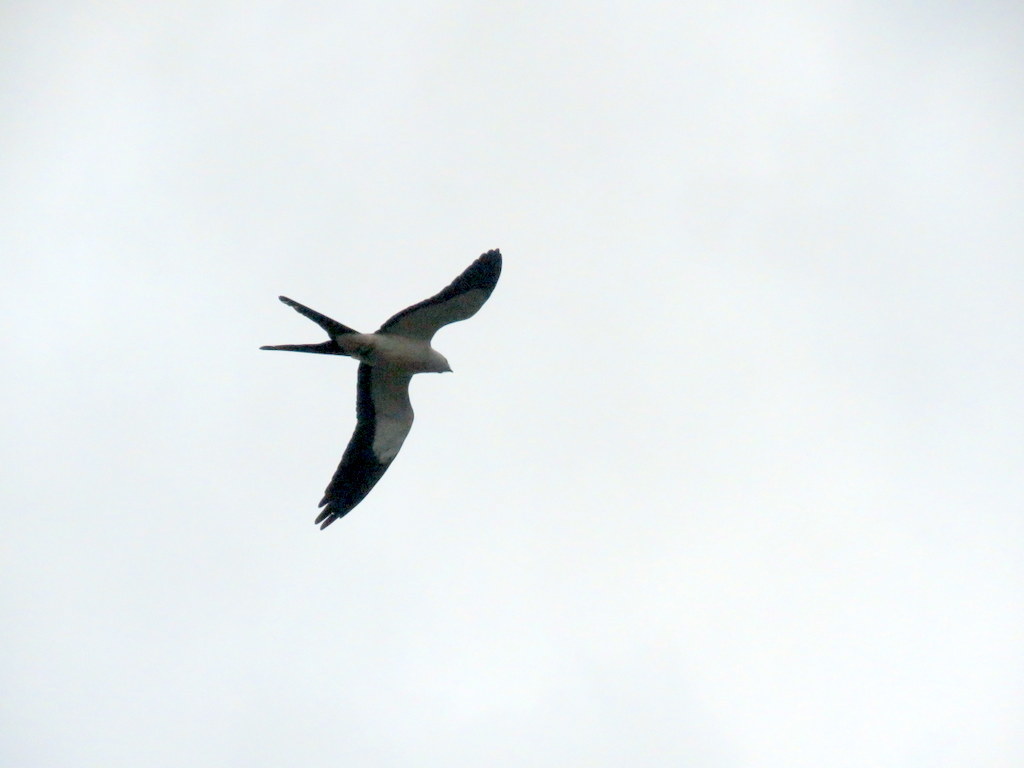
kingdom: Animalia
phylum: Chordata
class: Aves
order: Accipitriformes
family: Accipitridae
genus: Elanoides
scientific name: Elanoides forficatus
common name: Swallow-tailed kite
